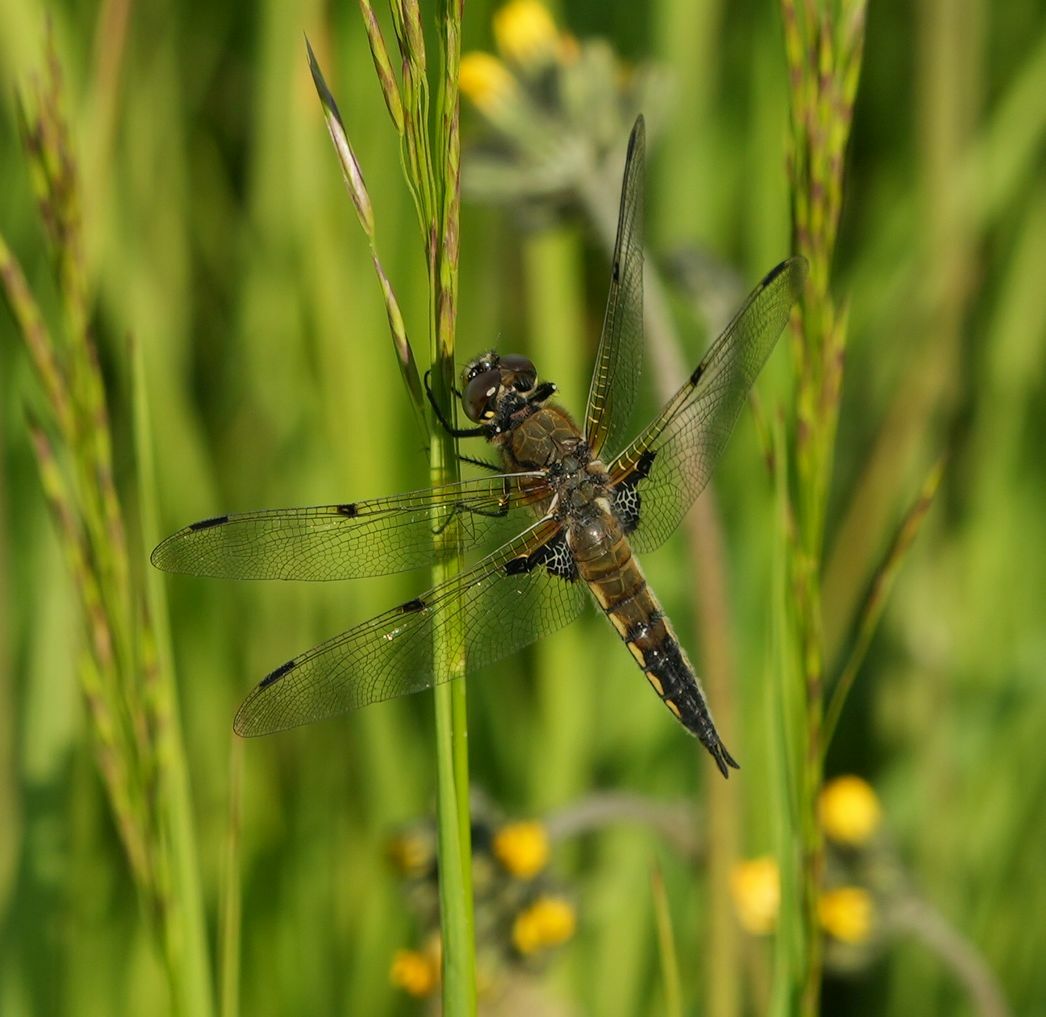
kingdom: Animalia
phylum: Arthropoda
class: Insecta
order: Odonata
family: Libellulidae
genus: Libellula
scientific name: Libellula quadrimaculata
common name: Four-spotted chaser
